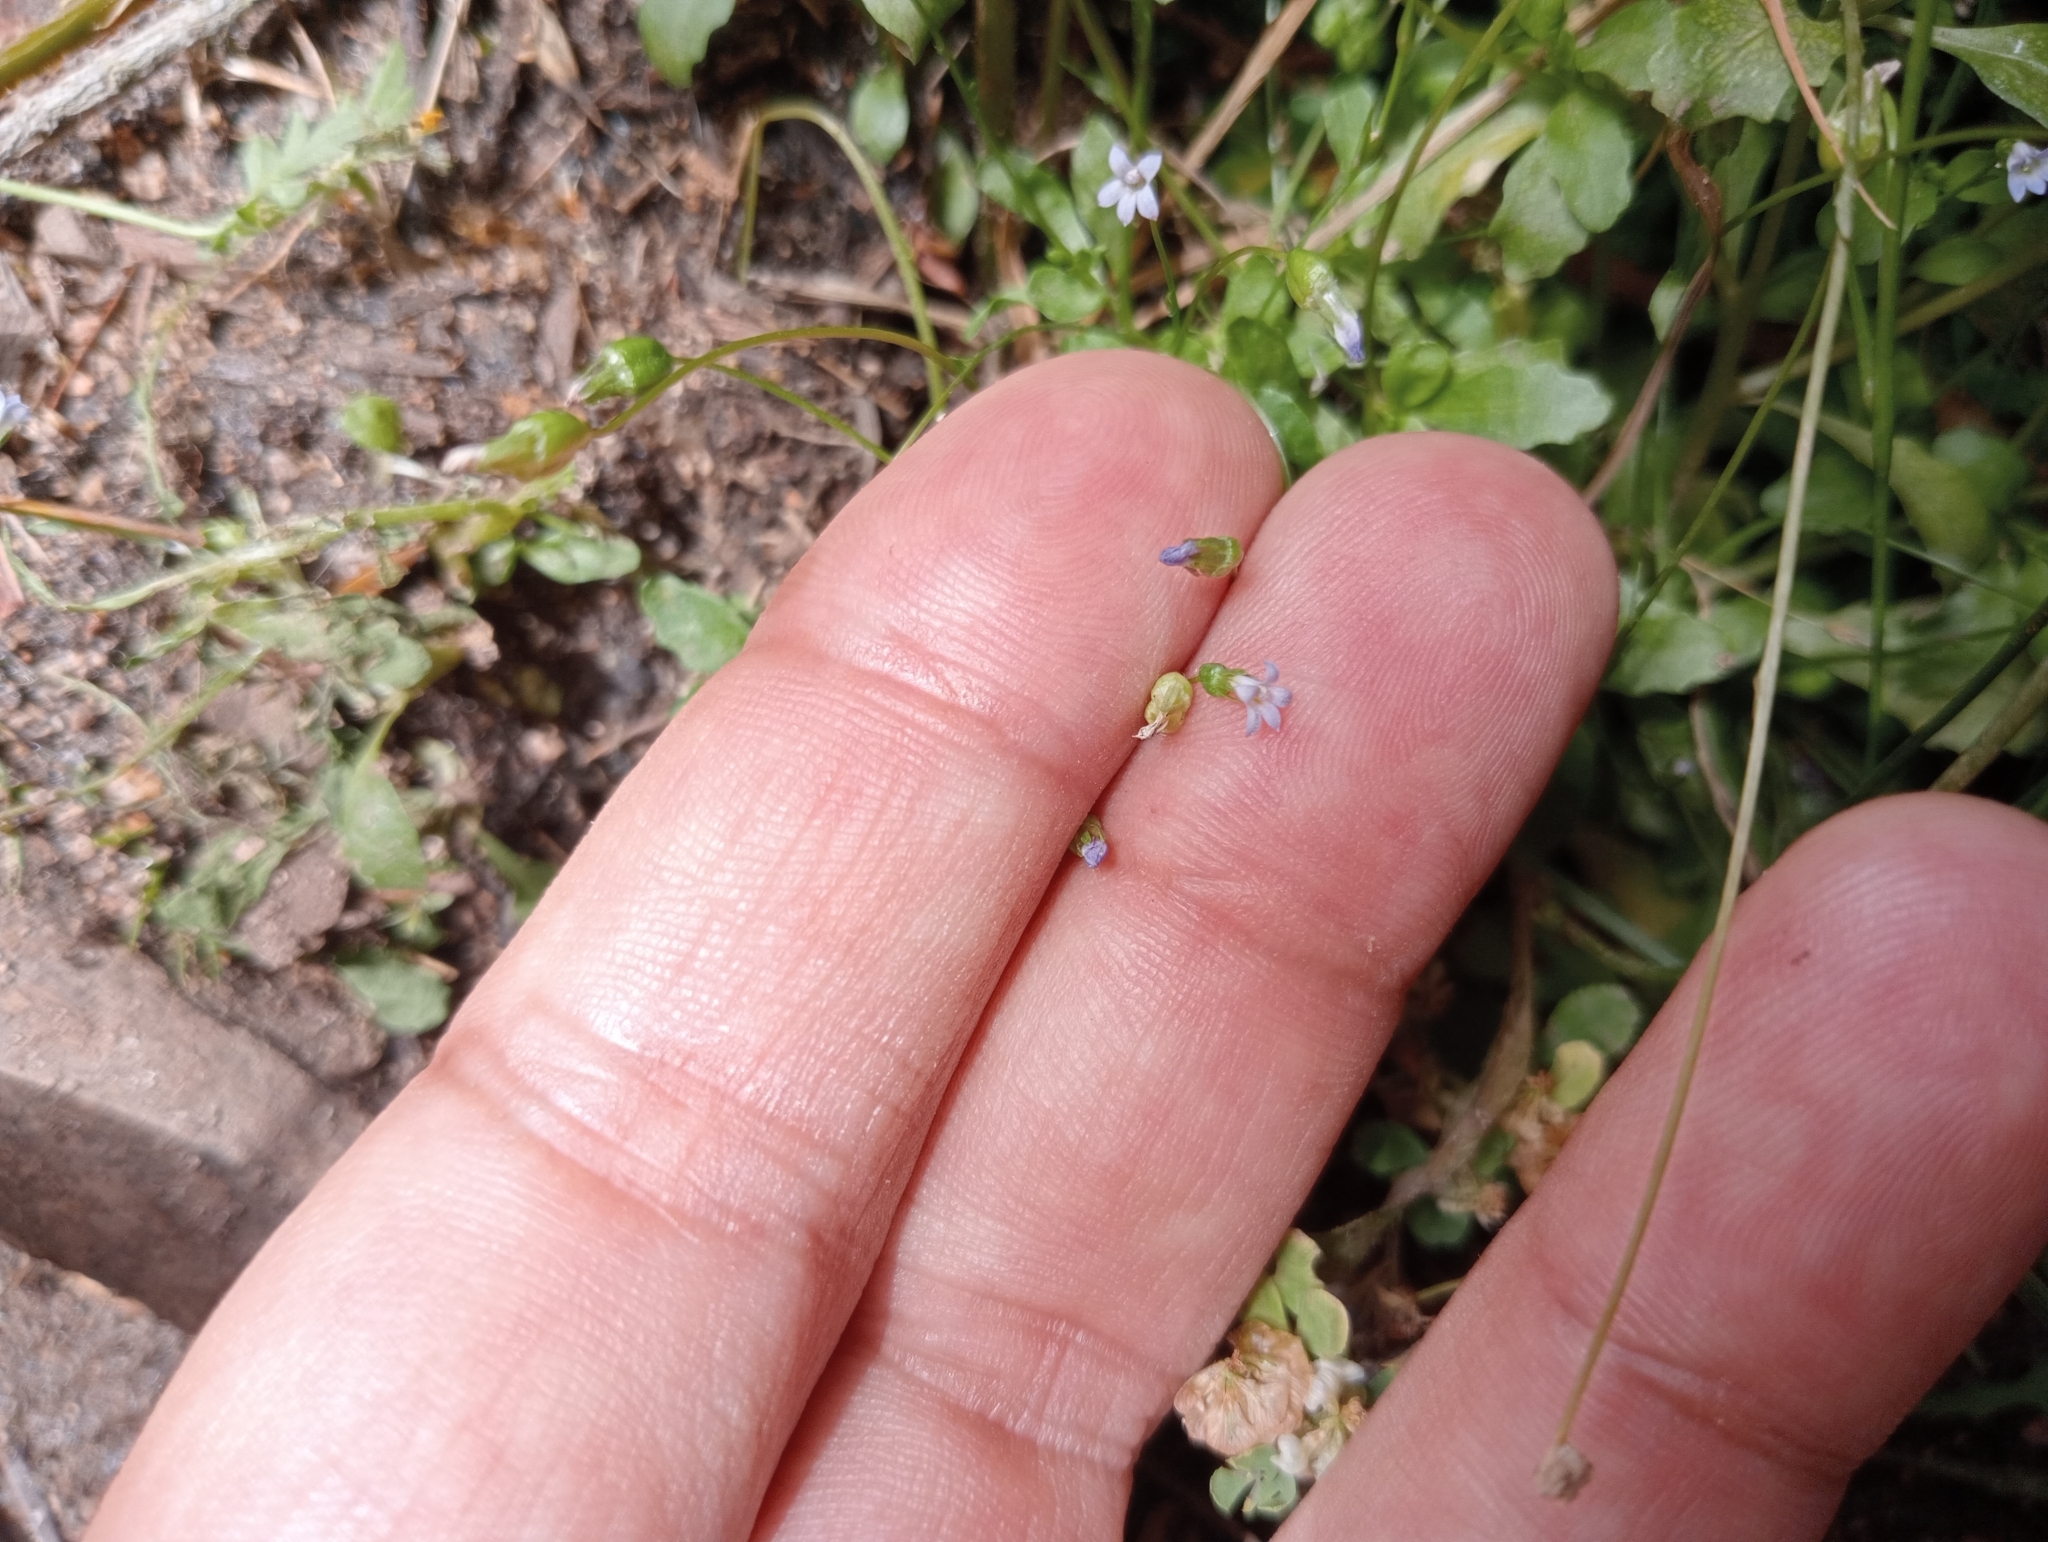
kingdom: Plantae
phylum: Tracheophyta
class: Magnoliopsida
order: Asterales
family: Campanulaceae
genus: Solenopsis
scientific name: Solenopsis laurentia
